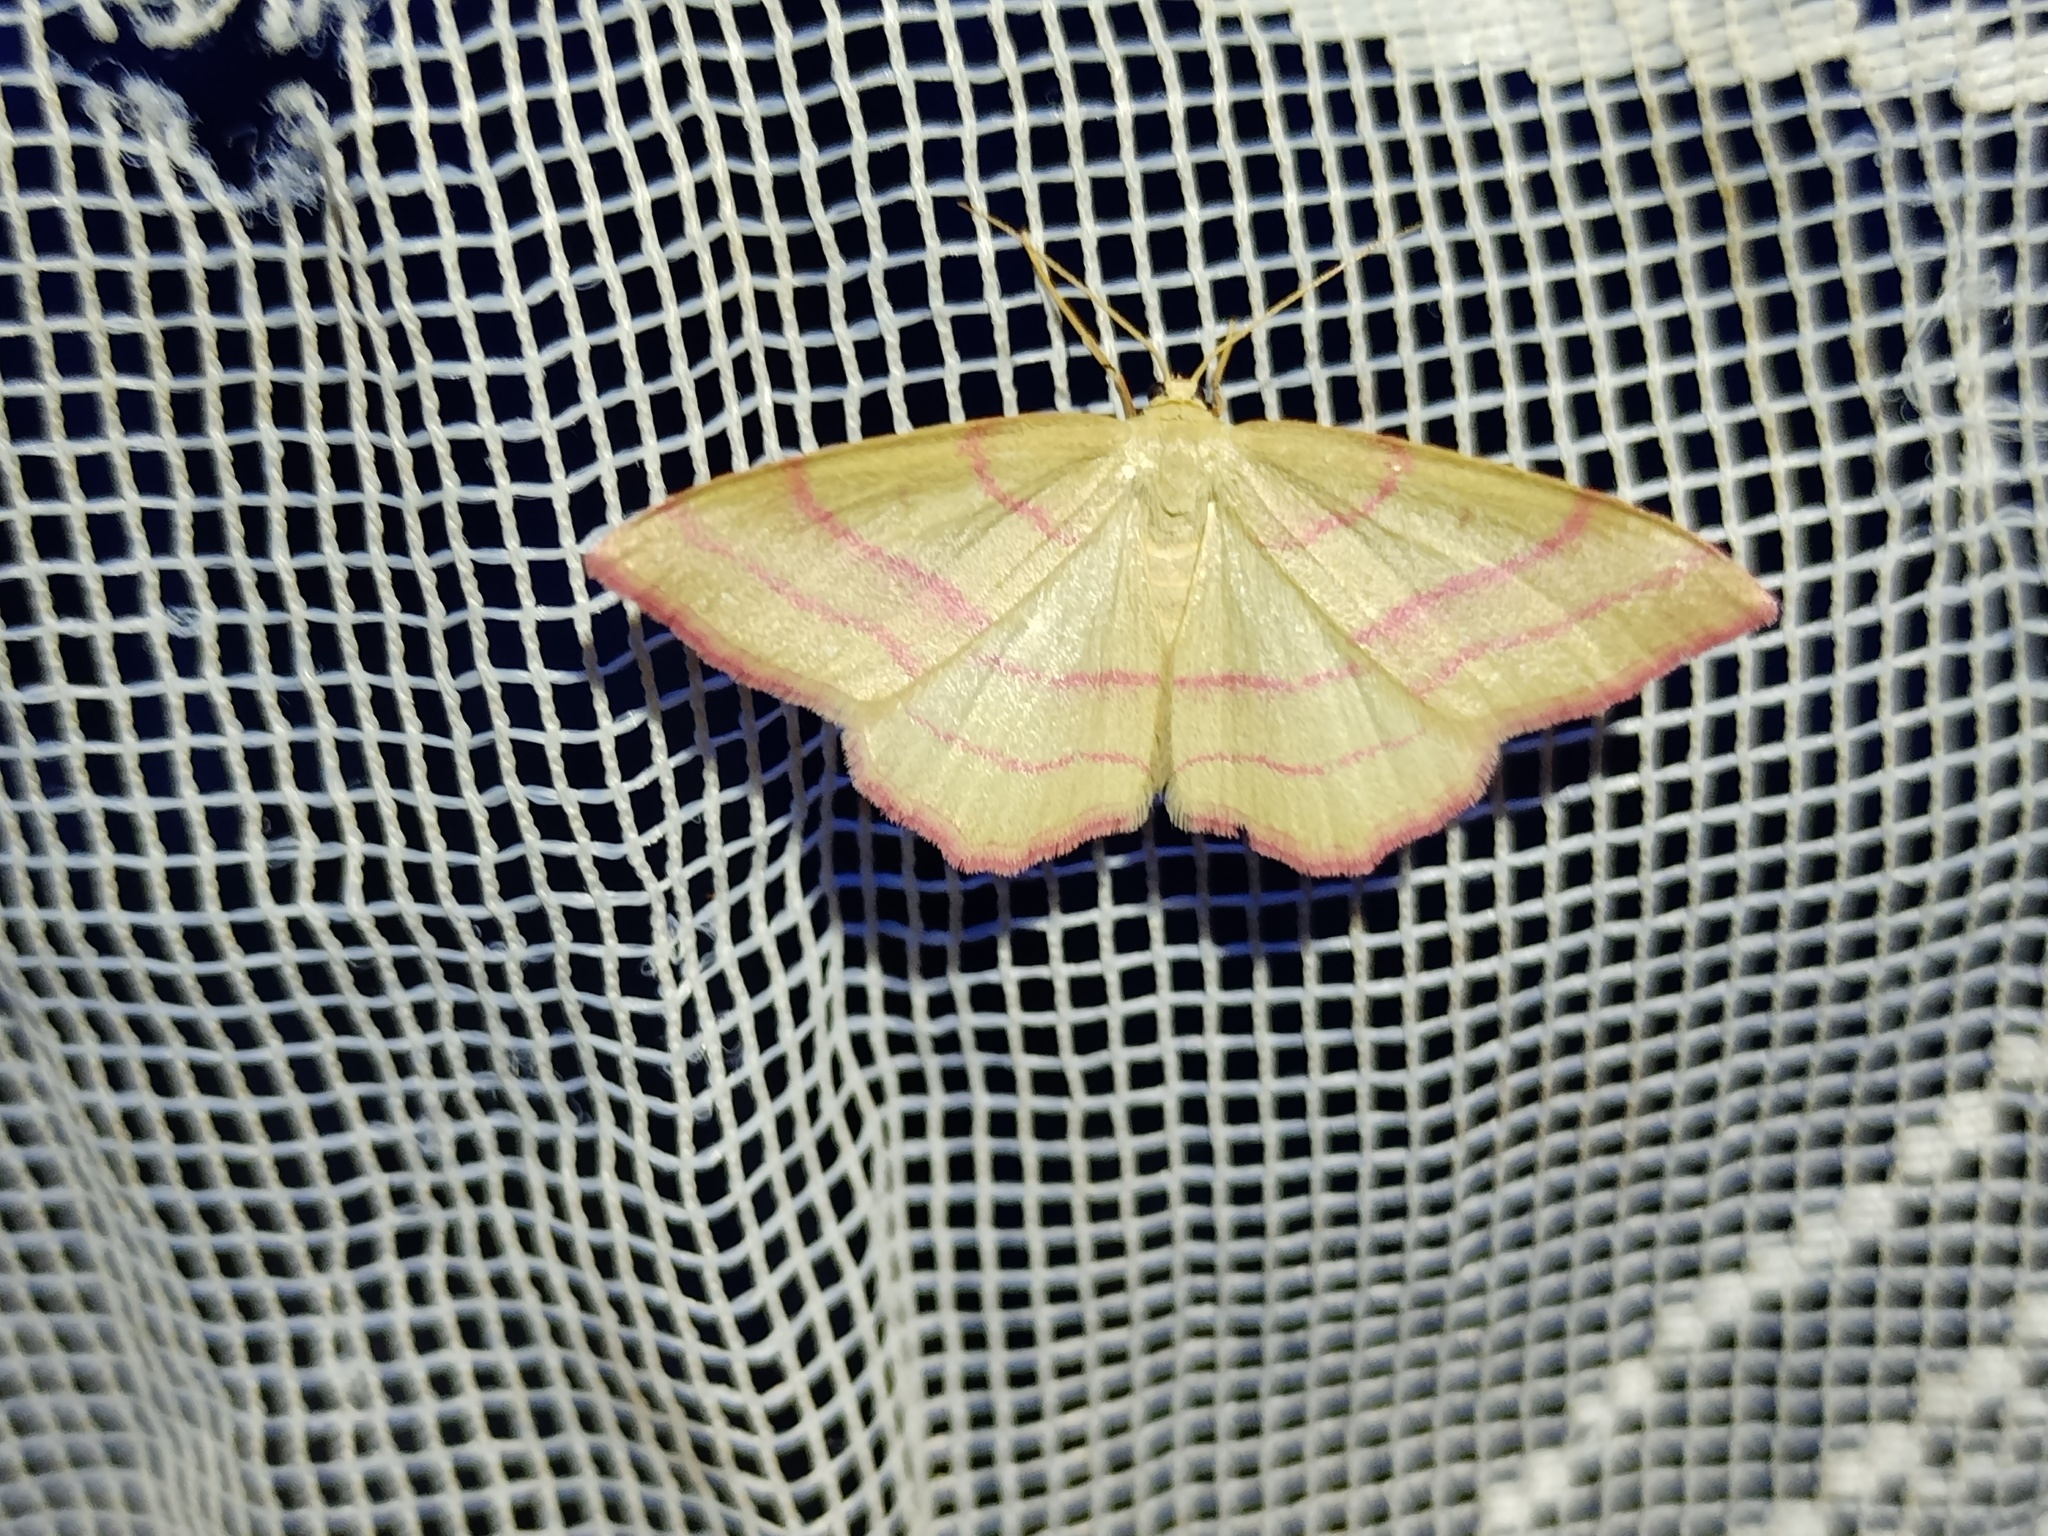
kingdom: Animalia
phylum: Arthropoda
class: Insecta
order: Lepidoptera
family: Geometridae
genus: Rhodostrophia
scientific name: Rhodostrophia vibicaria
